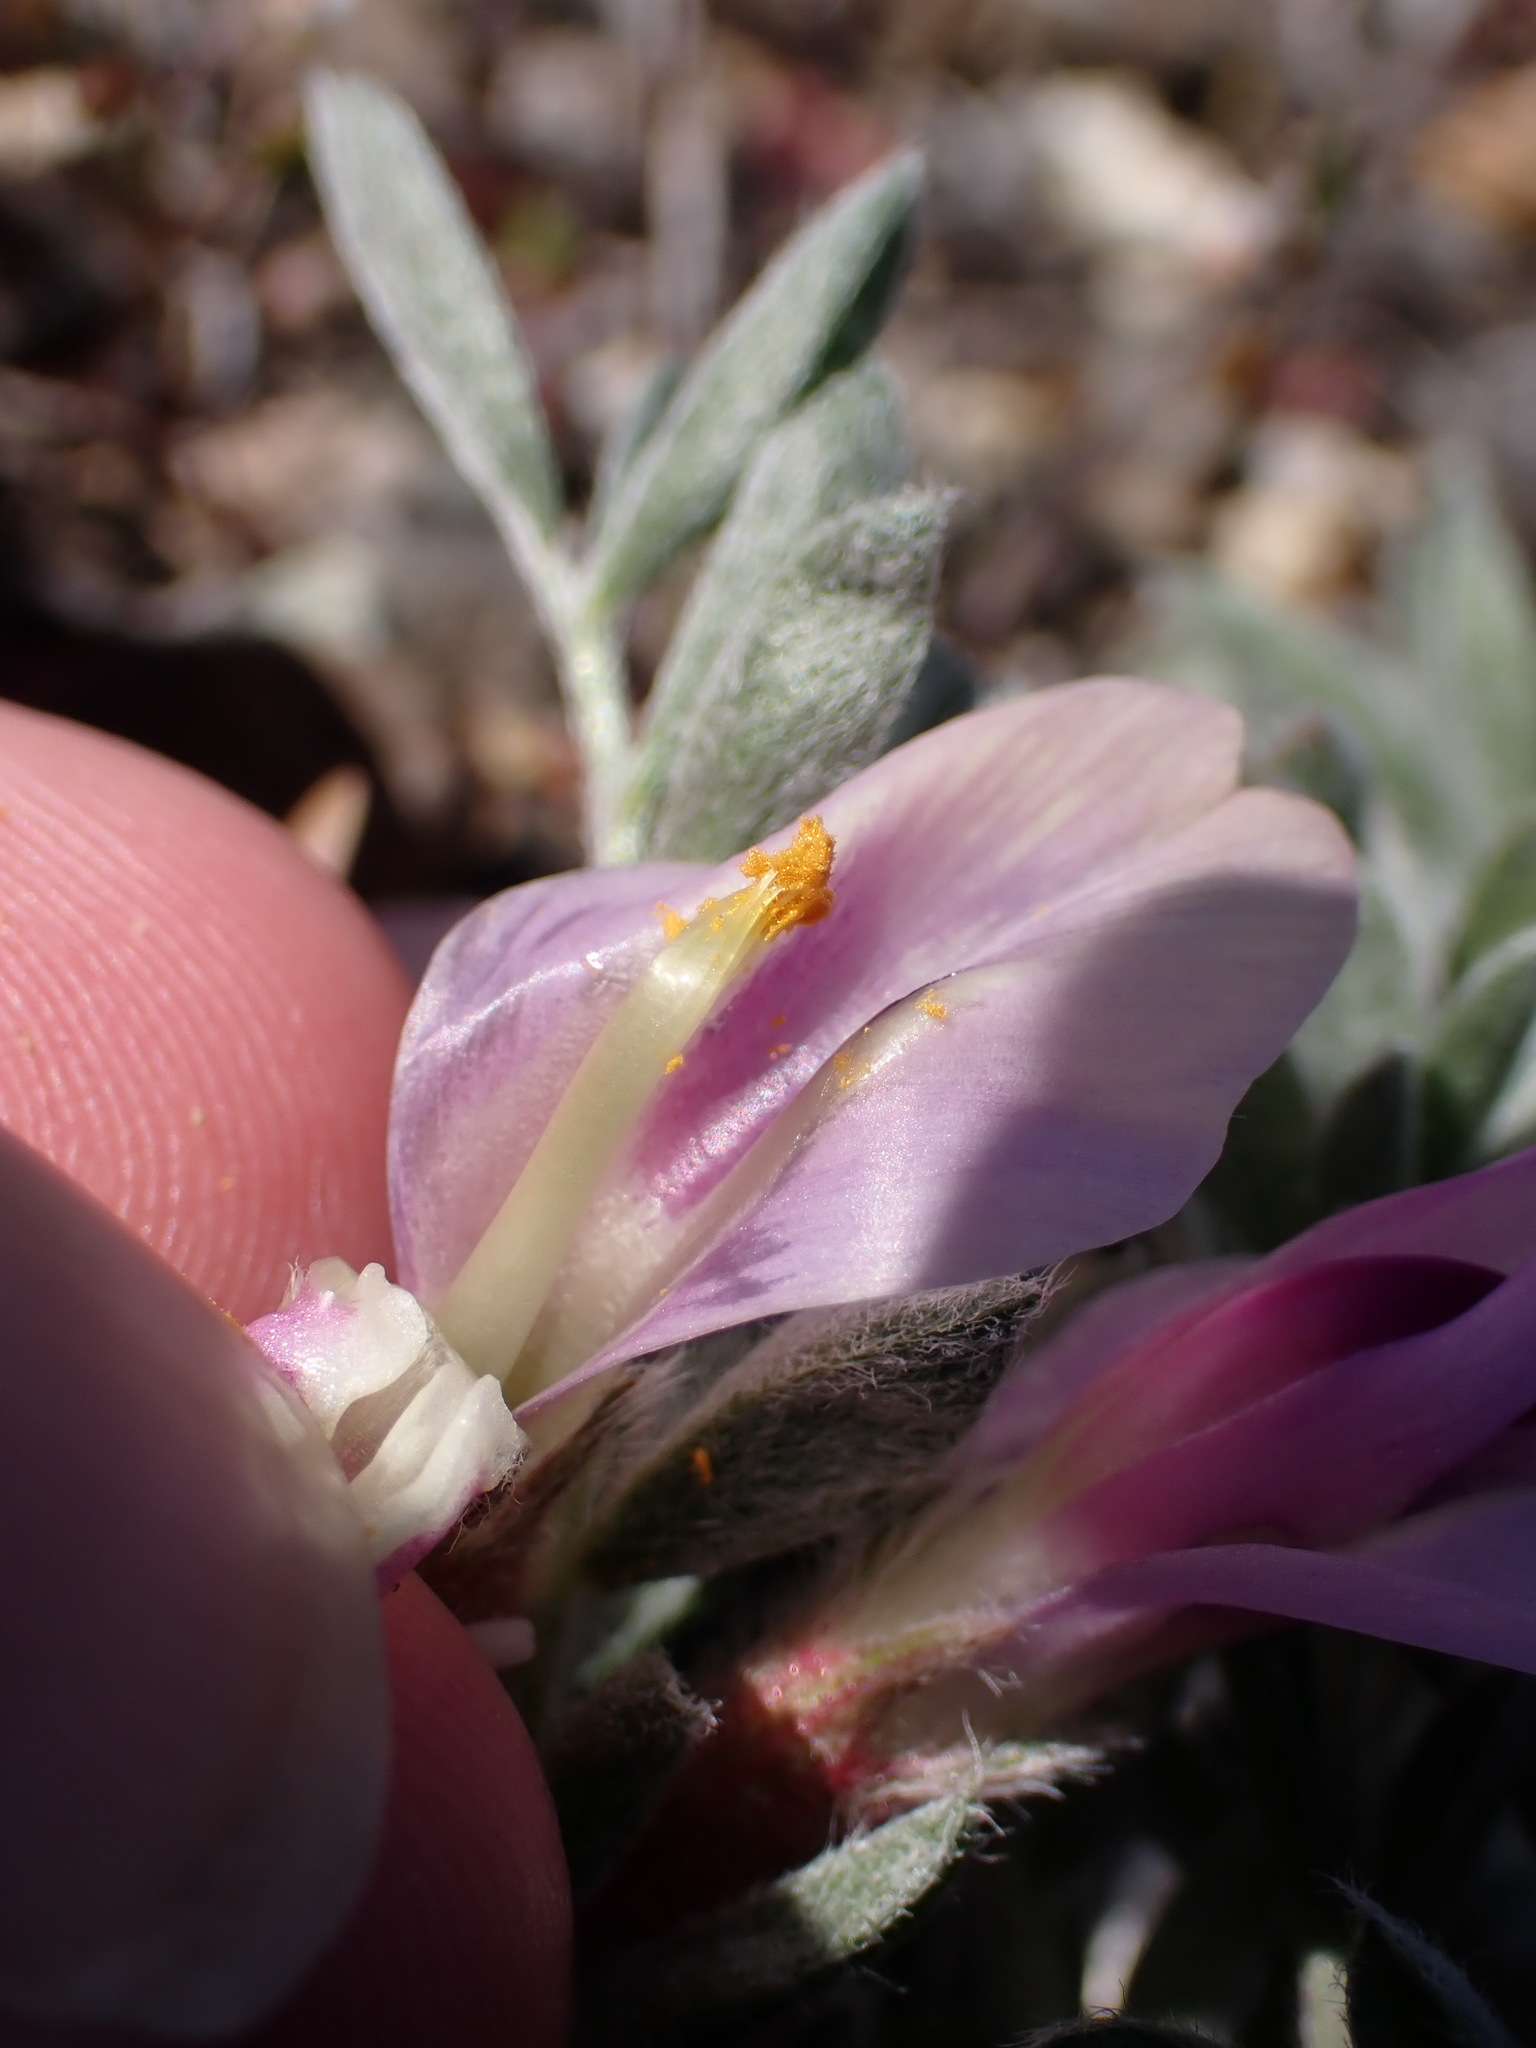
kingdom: Plantae
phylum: Tracheophyta
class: Magnoliopsida
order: Fabales
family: Fabaceae
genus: Astragalus
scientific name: Astragalus purshii
